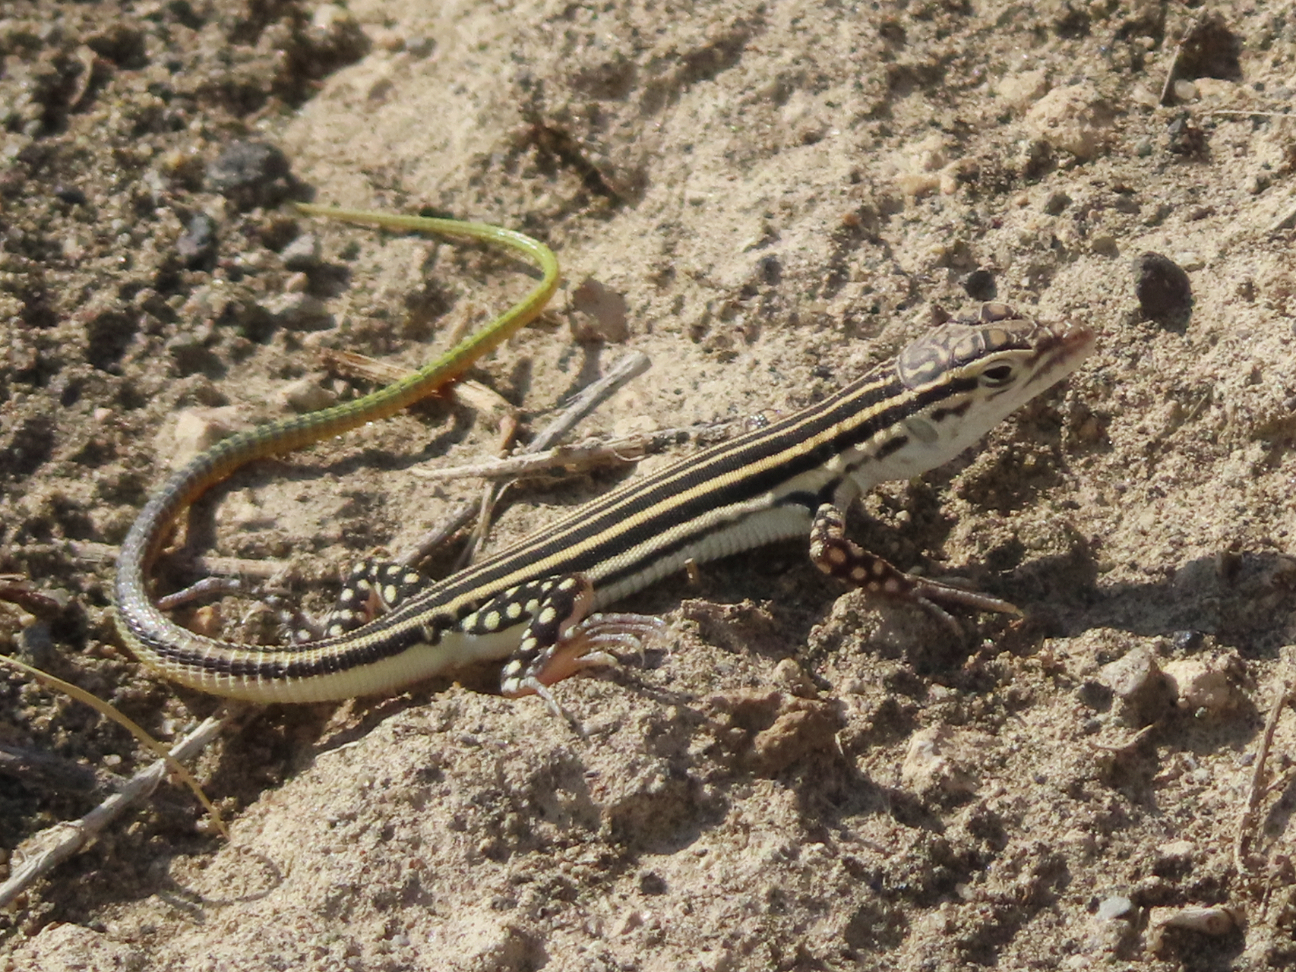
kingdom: Animalia
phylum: Chordata
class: Squamata
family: Lacertidae
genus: Eremias
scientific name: Eremias pleskei
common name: Pleske's racerunner
